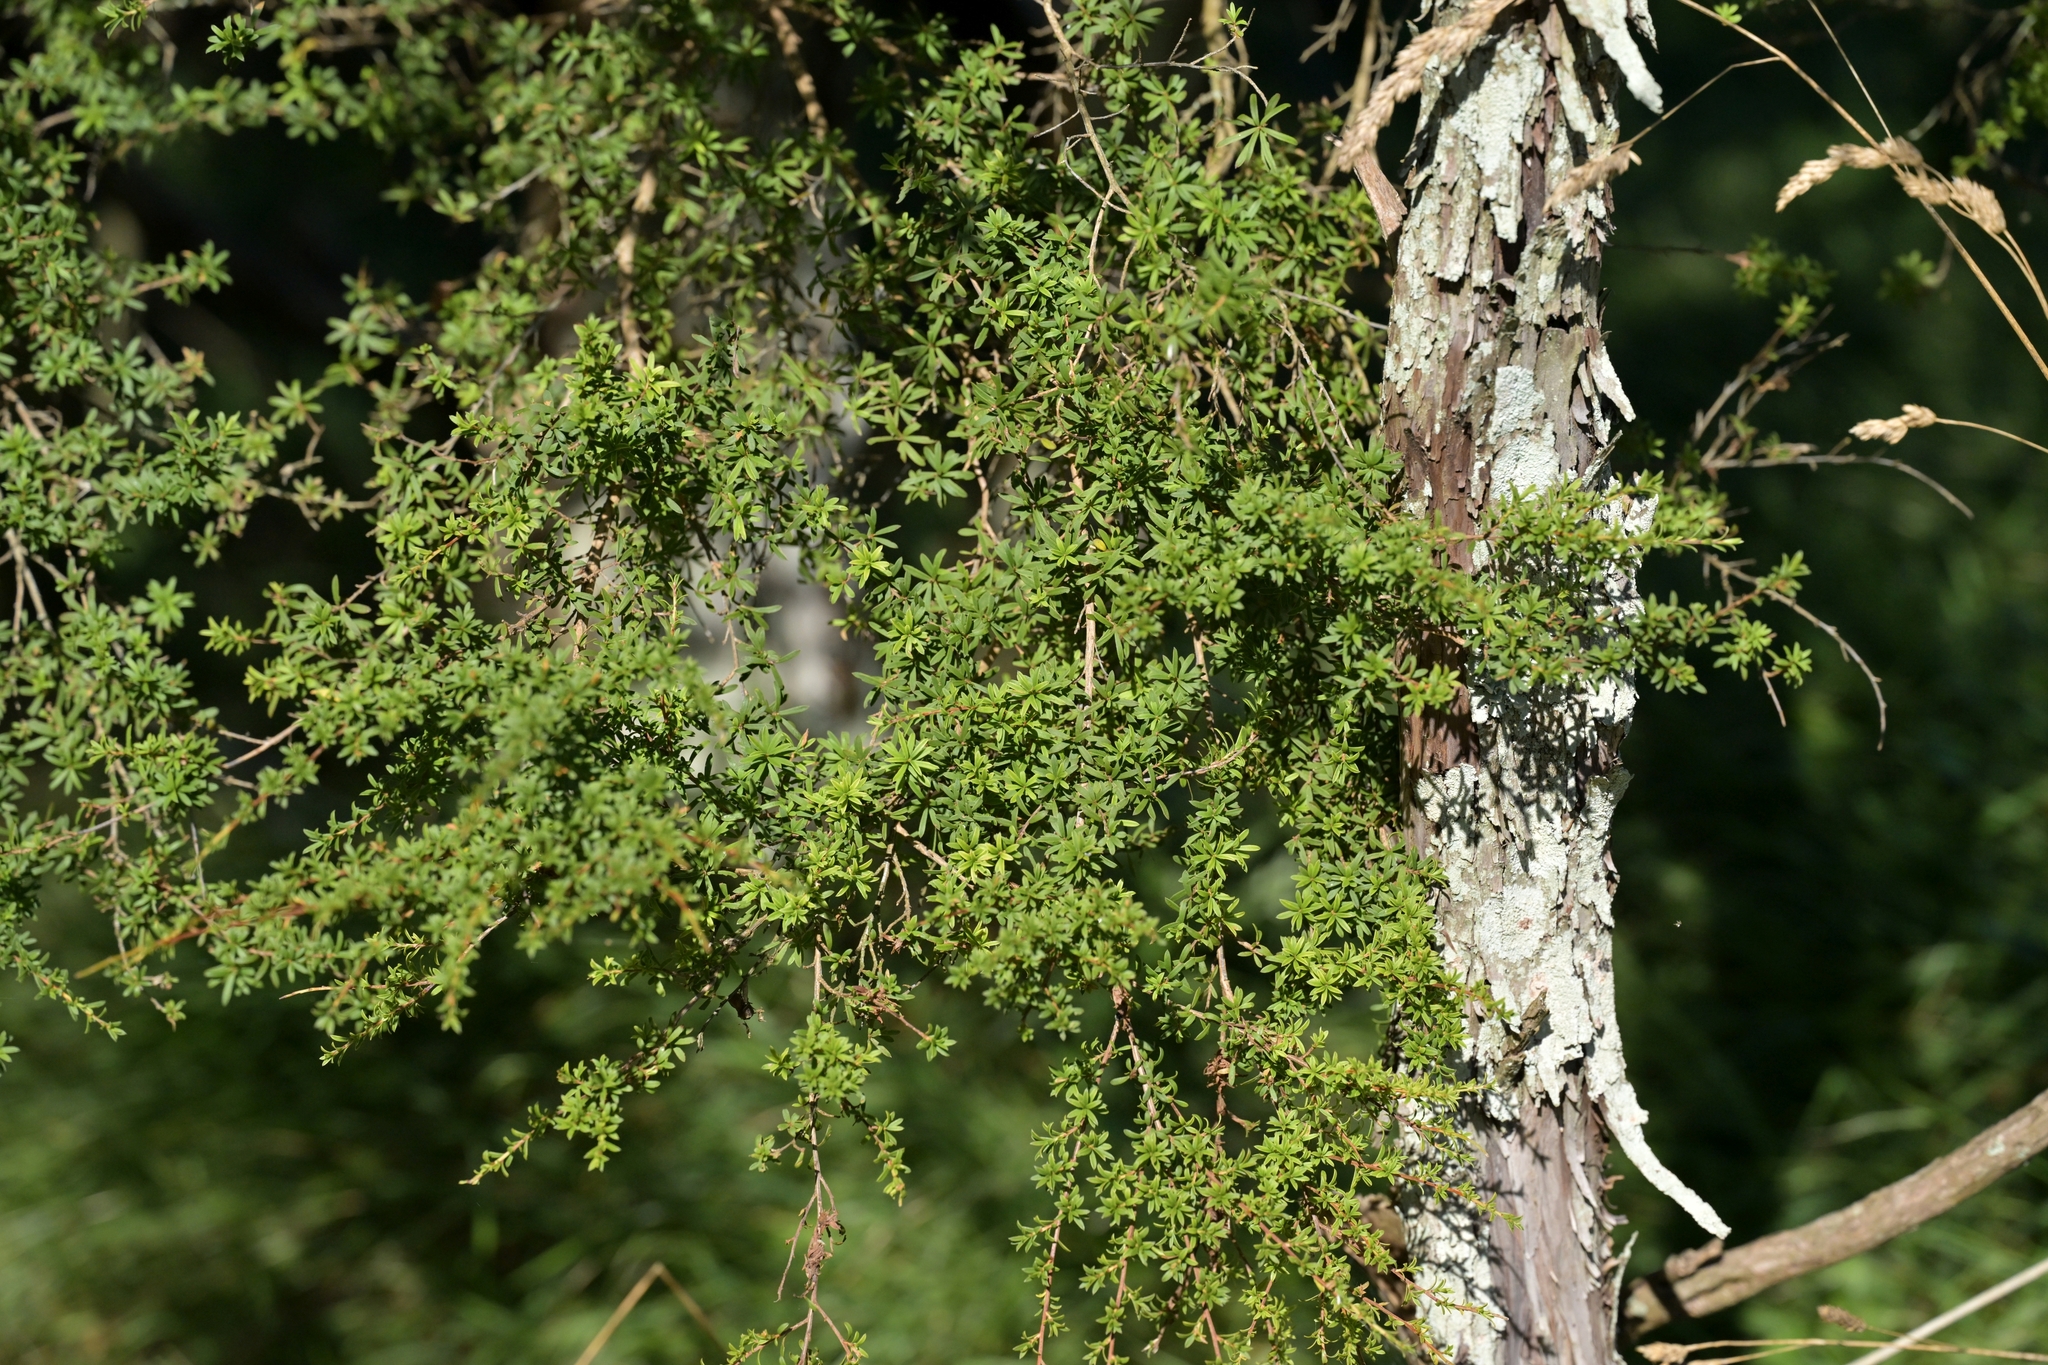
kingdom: Plantae
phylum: Tracheophyta
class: Magnoliopsida
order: Myrtales
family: Myrtaceae
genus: Kunzea
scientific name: Kunzea ericoides
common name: Burgan
